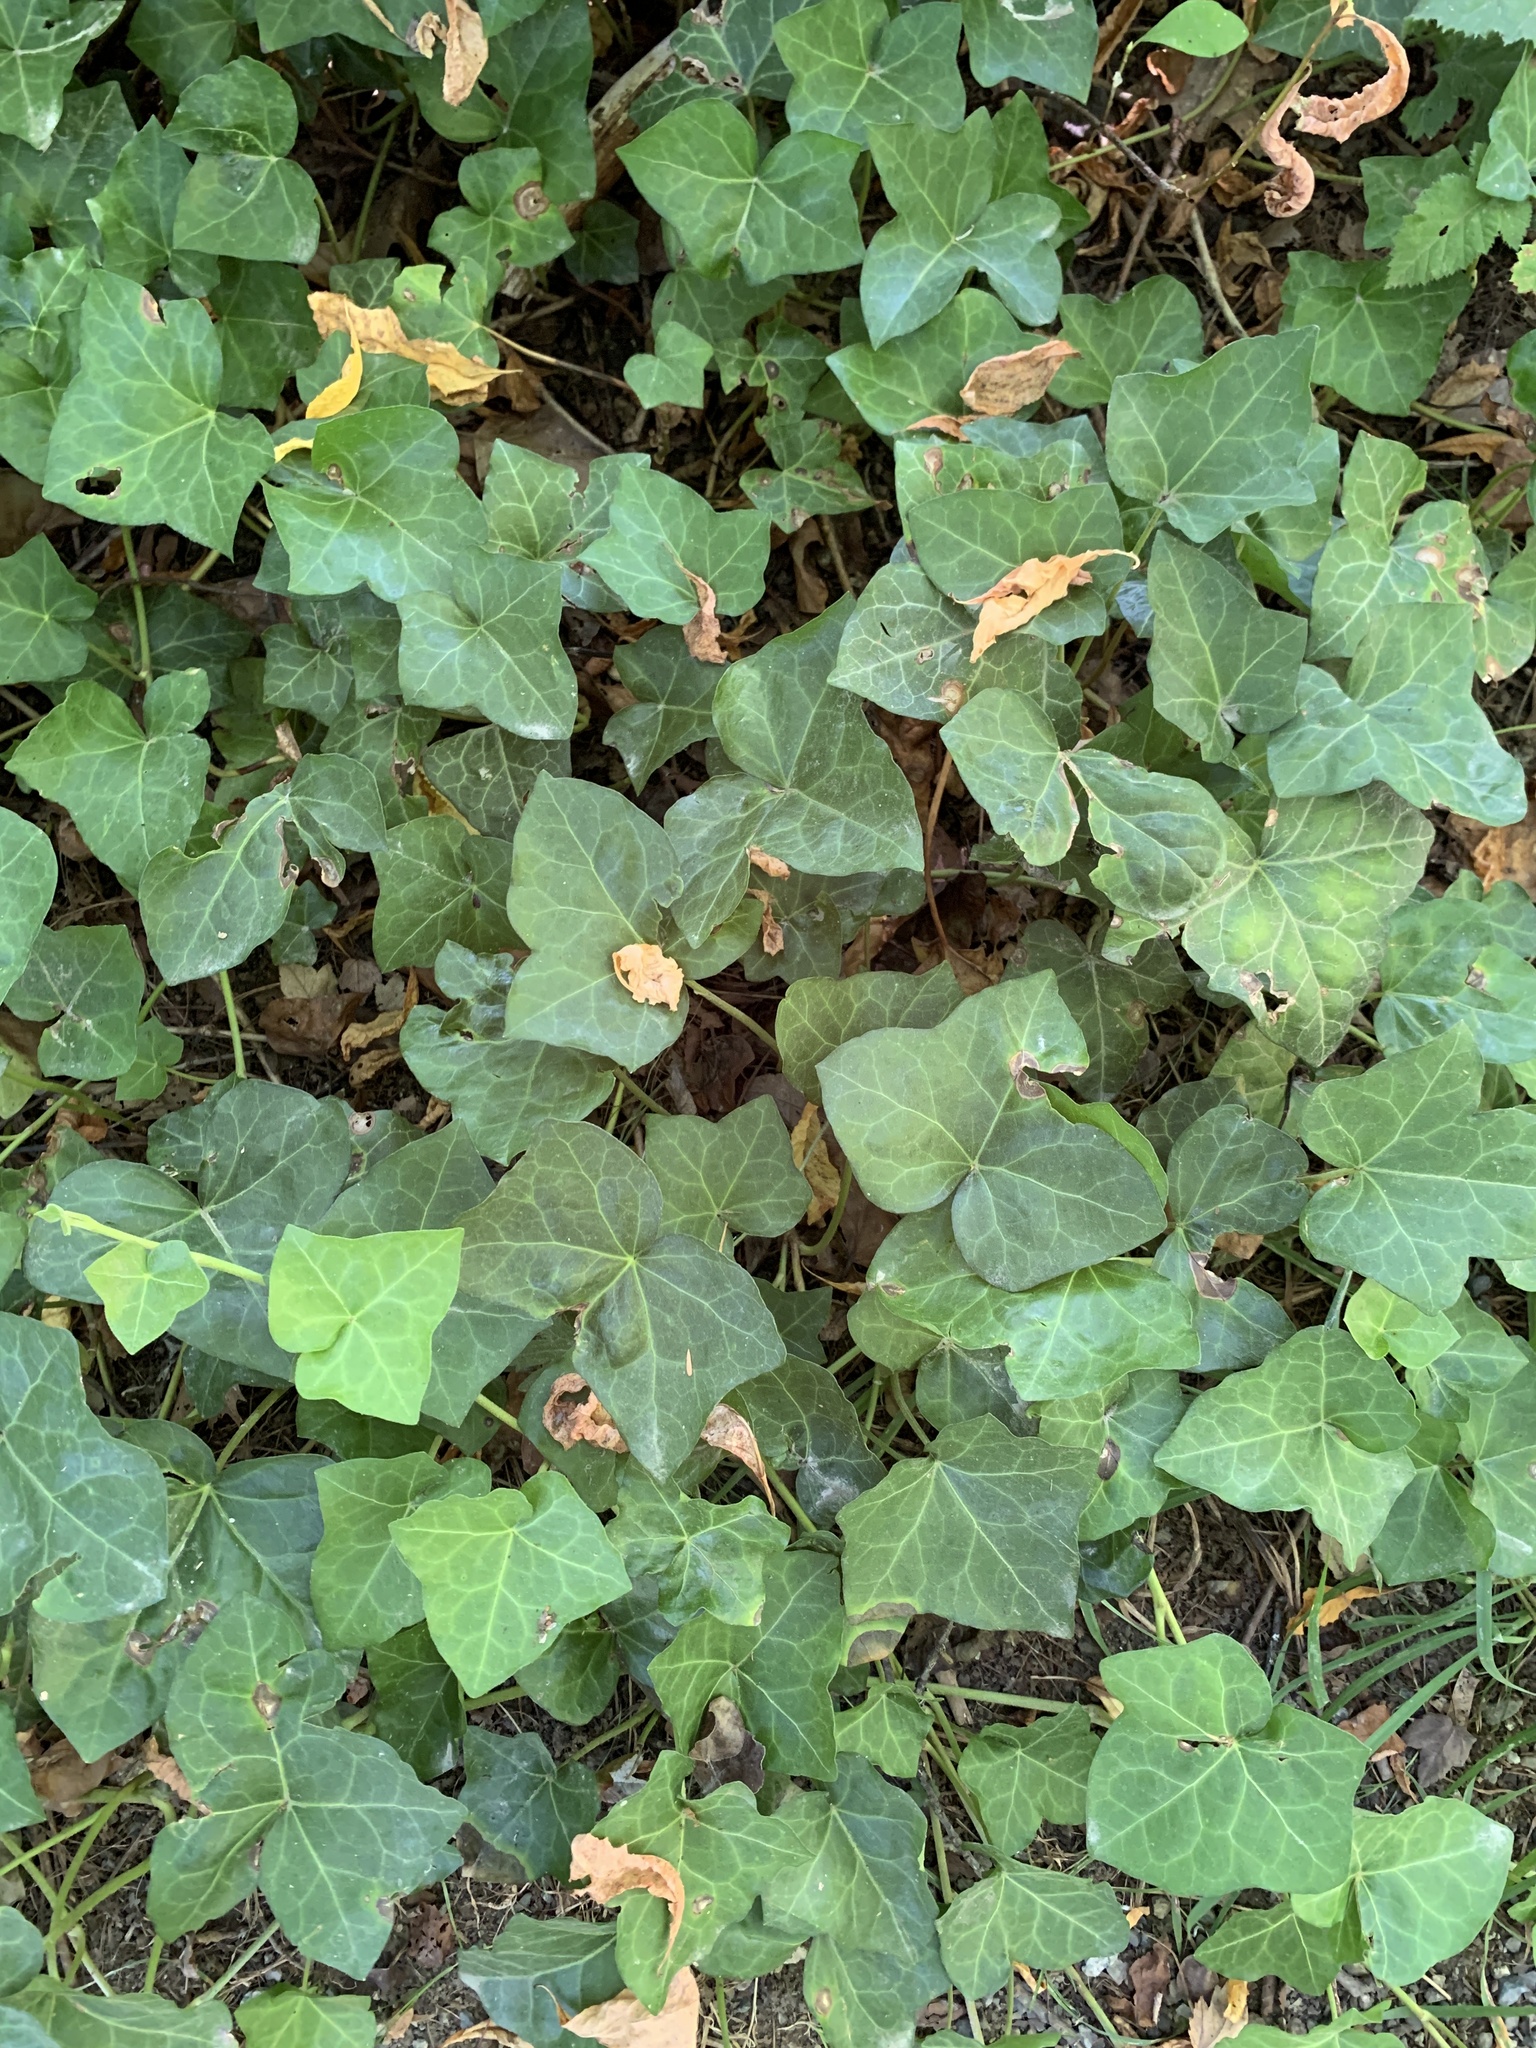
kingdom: Plantae
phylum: Tracheophyta
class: Magnoliopsida
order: Apiales
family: Araliaceae
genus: Hedera
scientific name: Hedera helix
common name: Ivy
